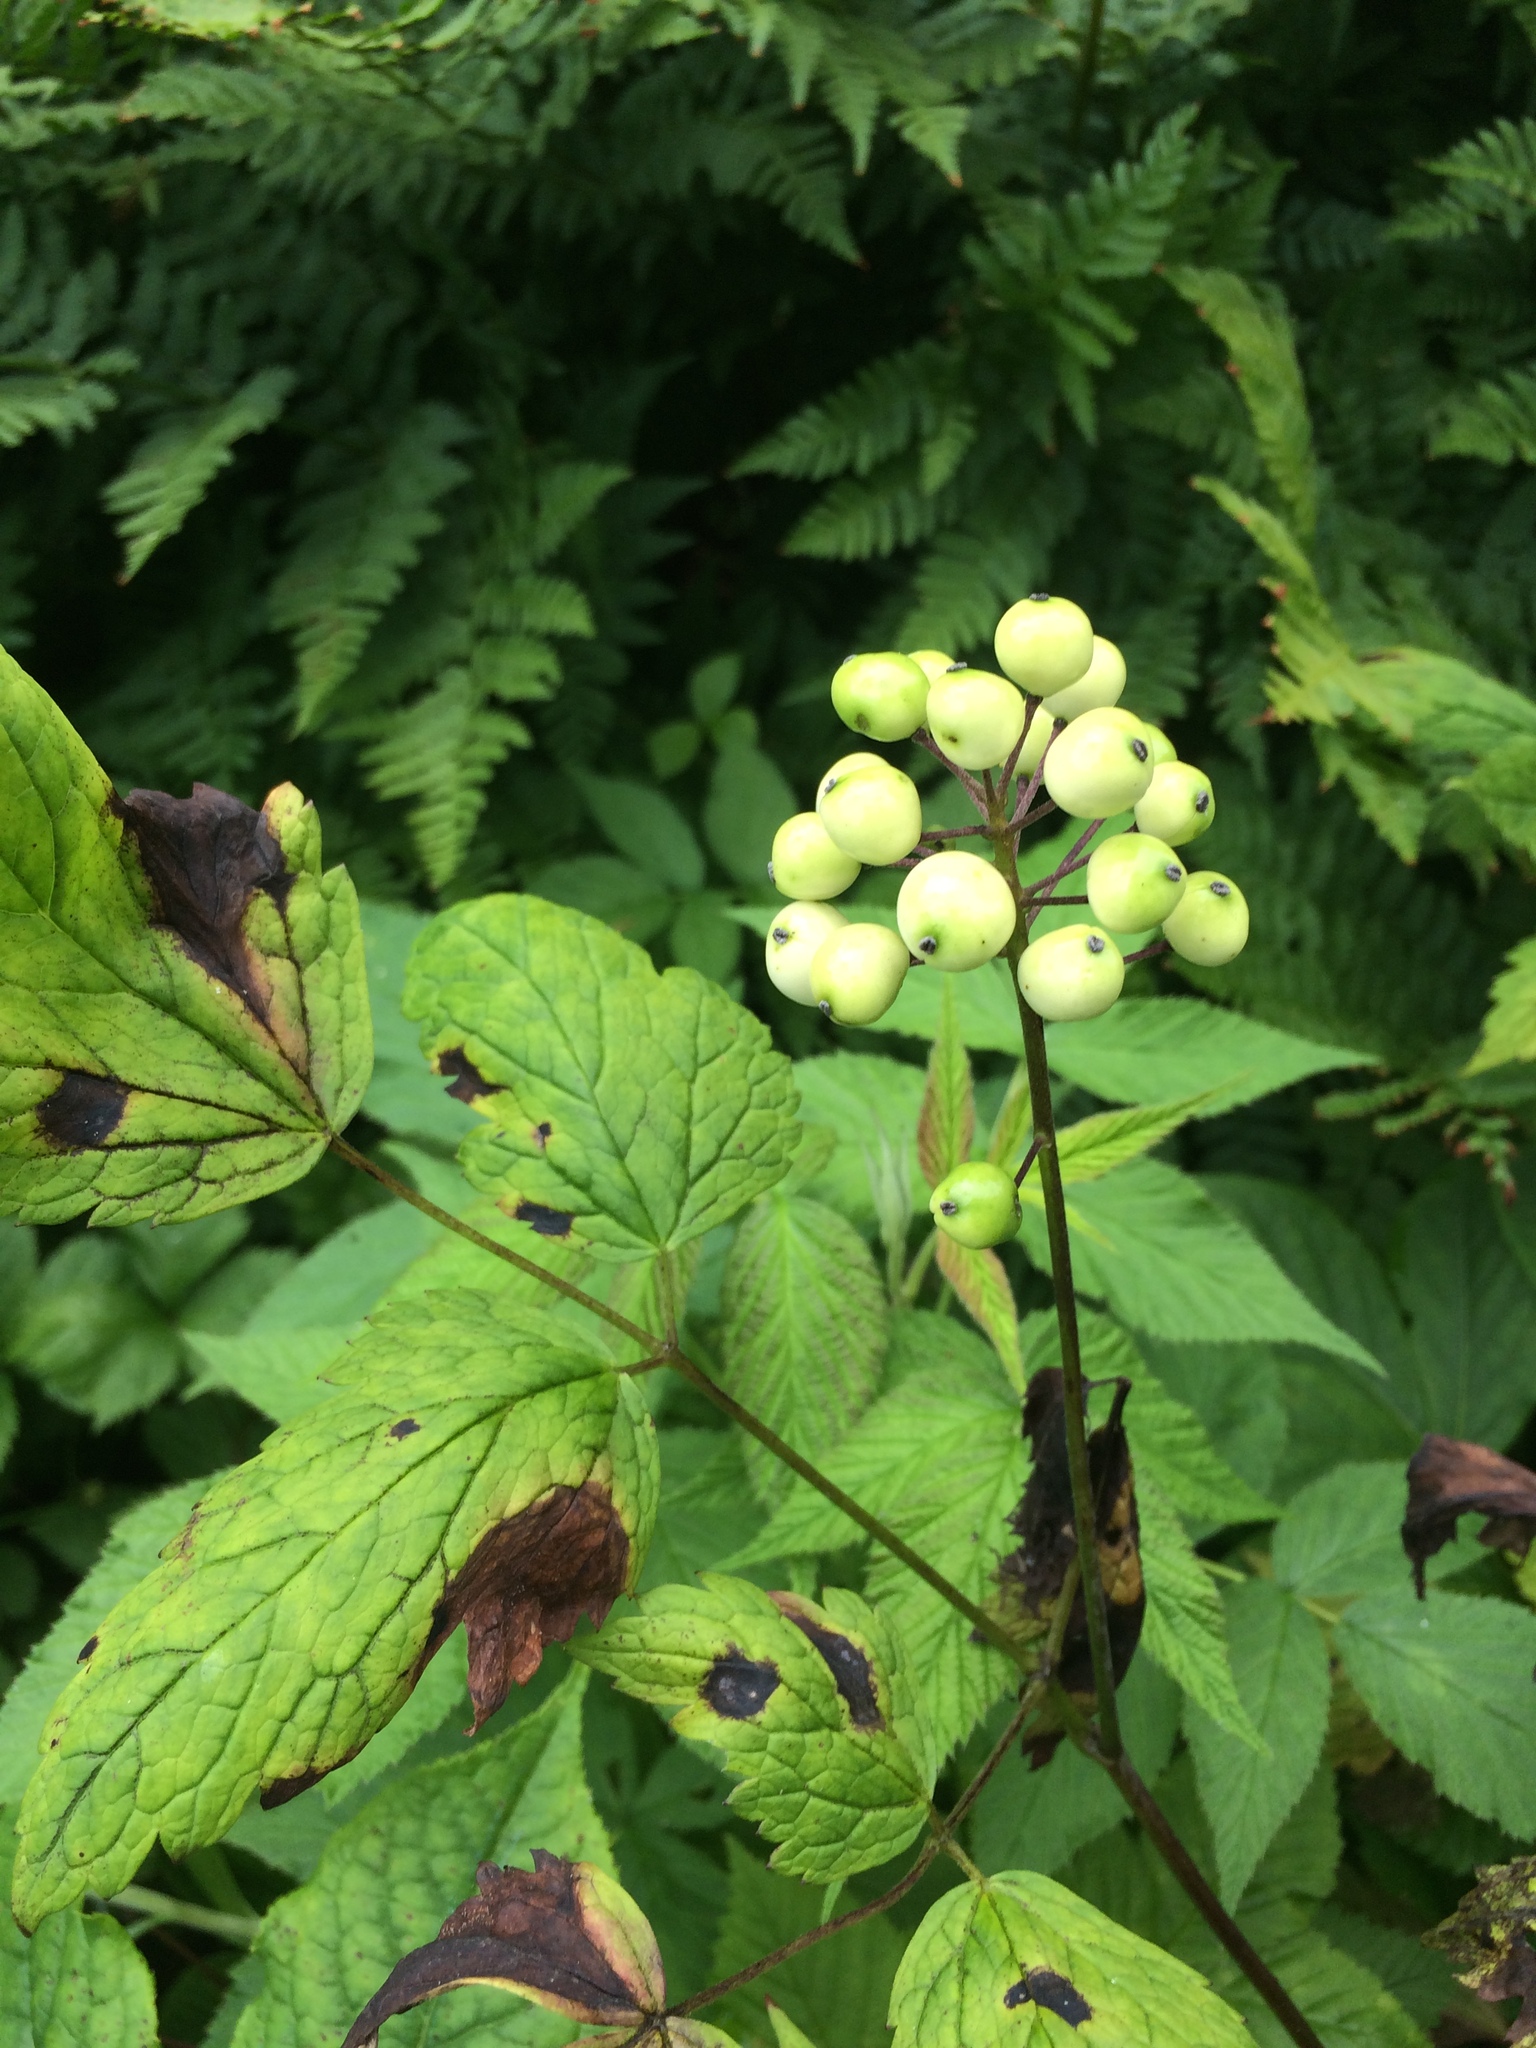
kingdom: Plantae
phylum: Tracheophyta
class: Magnoliopsida
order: Ranunculales
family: Ranunculaceae
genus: Actaea
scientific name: Actaea rubra
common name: Red baneberry
